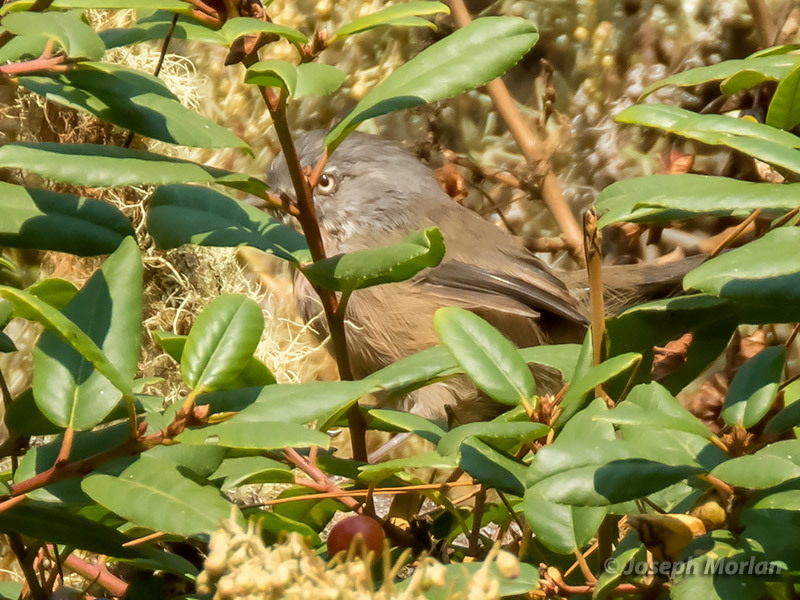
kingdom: Animalia
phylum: Chordata
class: Aves
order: Passeriformes
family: Sylviidae
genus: Chamaea
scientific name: Chamaea fasciata
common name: Wrentit
